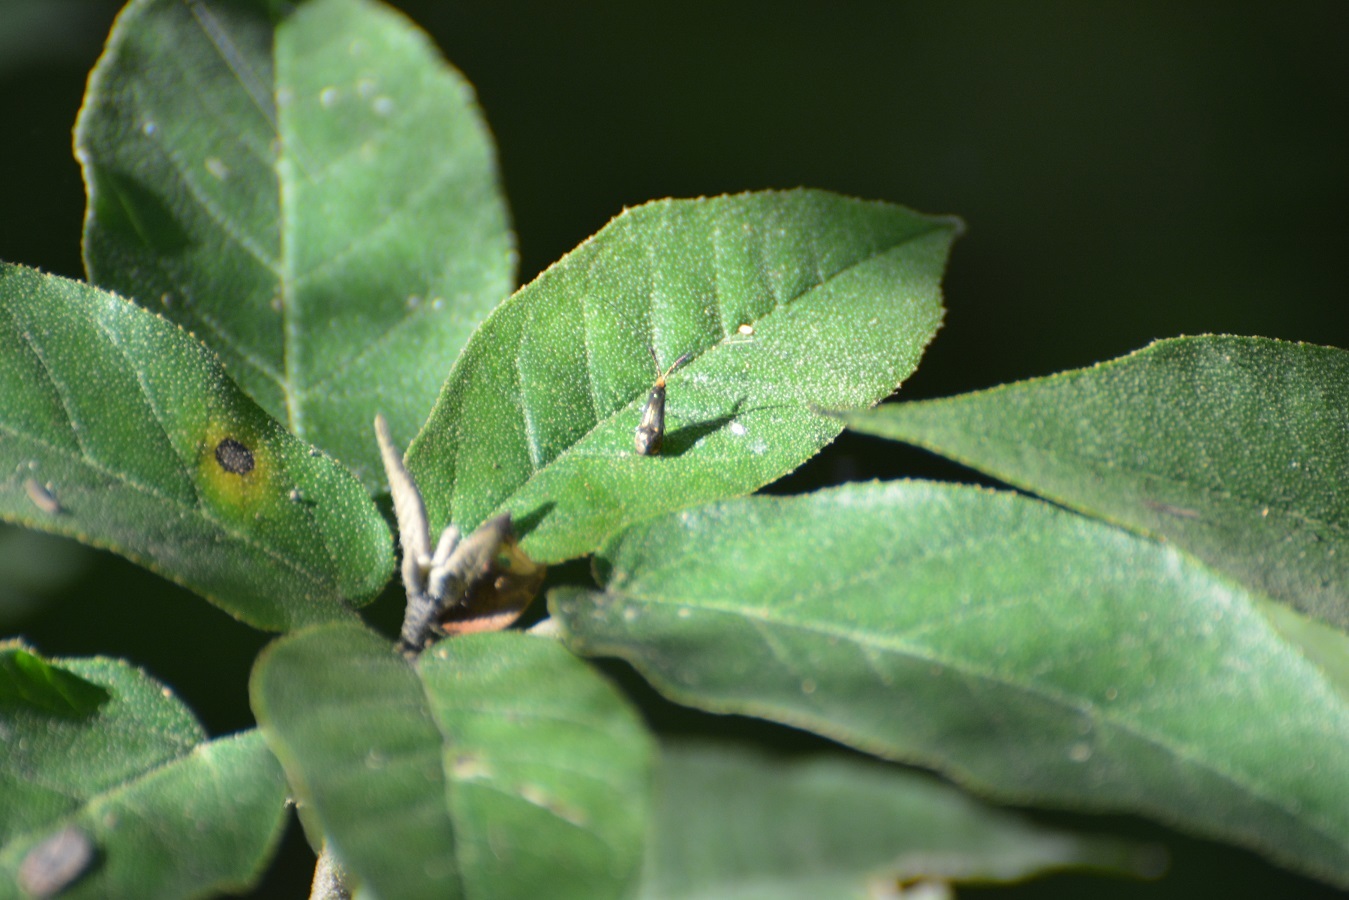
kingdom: Plantae
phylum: Tracheophyta
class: Magnoliopsida
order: Malpighiales
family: Euphorbiaceae
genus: Croton
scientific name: Croton cortesianus
